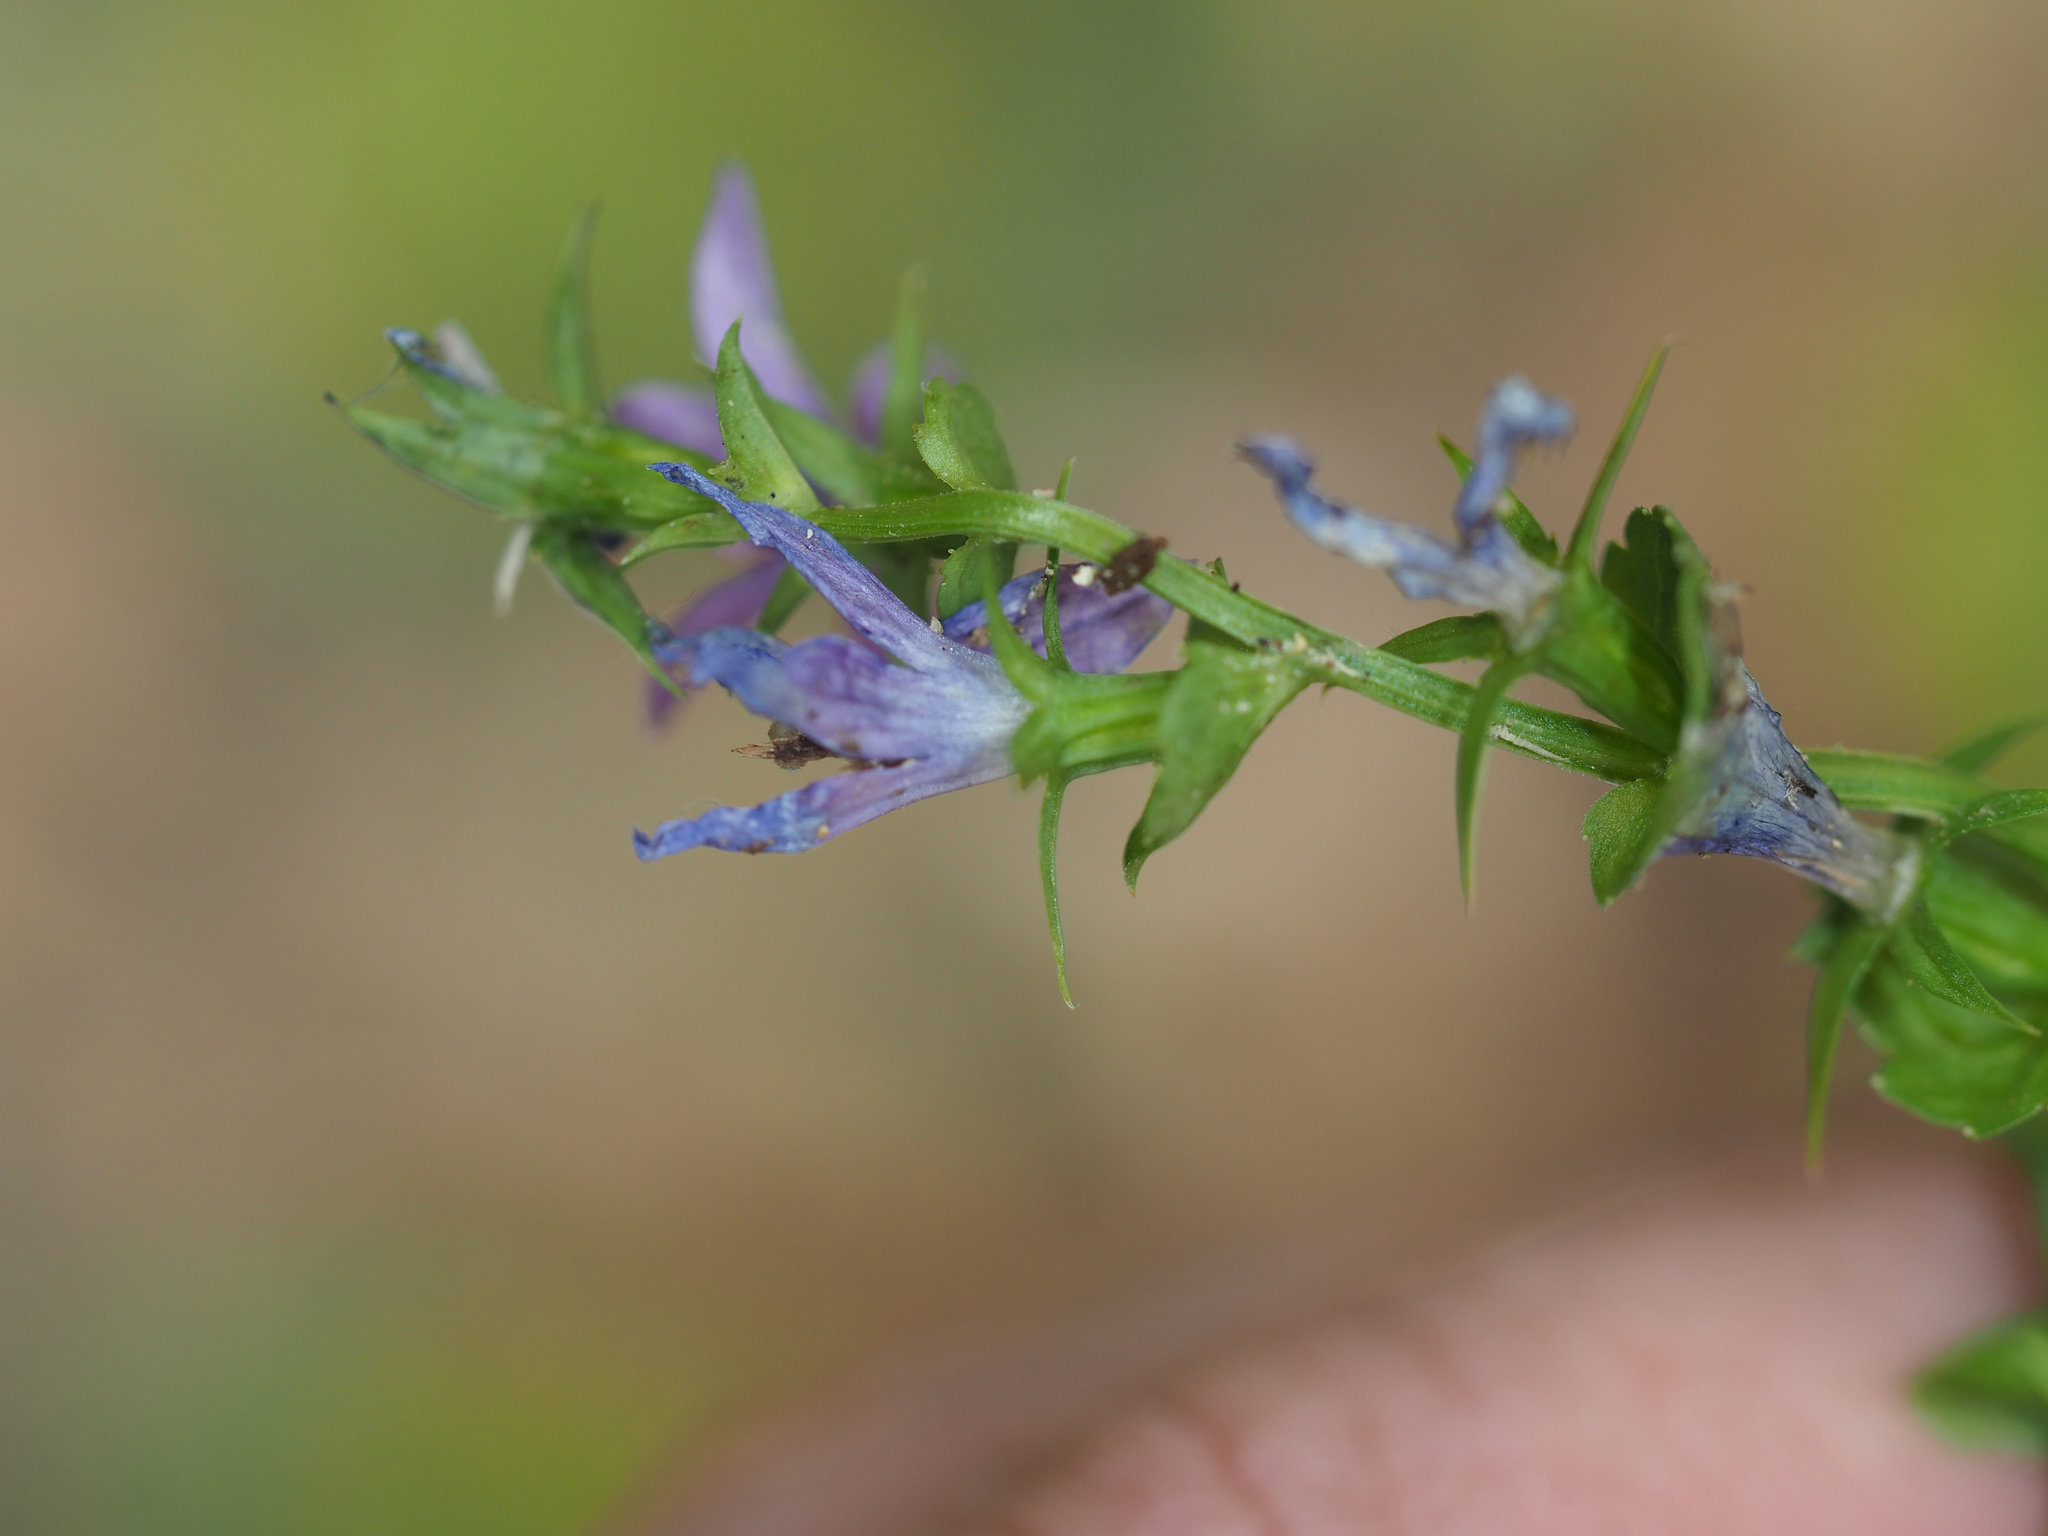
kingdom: Plantae
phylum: Tracheophyta
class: Magnoliopsida
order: Asterales
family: Campanulaceae
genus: Triodanis
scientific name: Triodanis perfoliata
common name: Clasping venus' looking-glass
